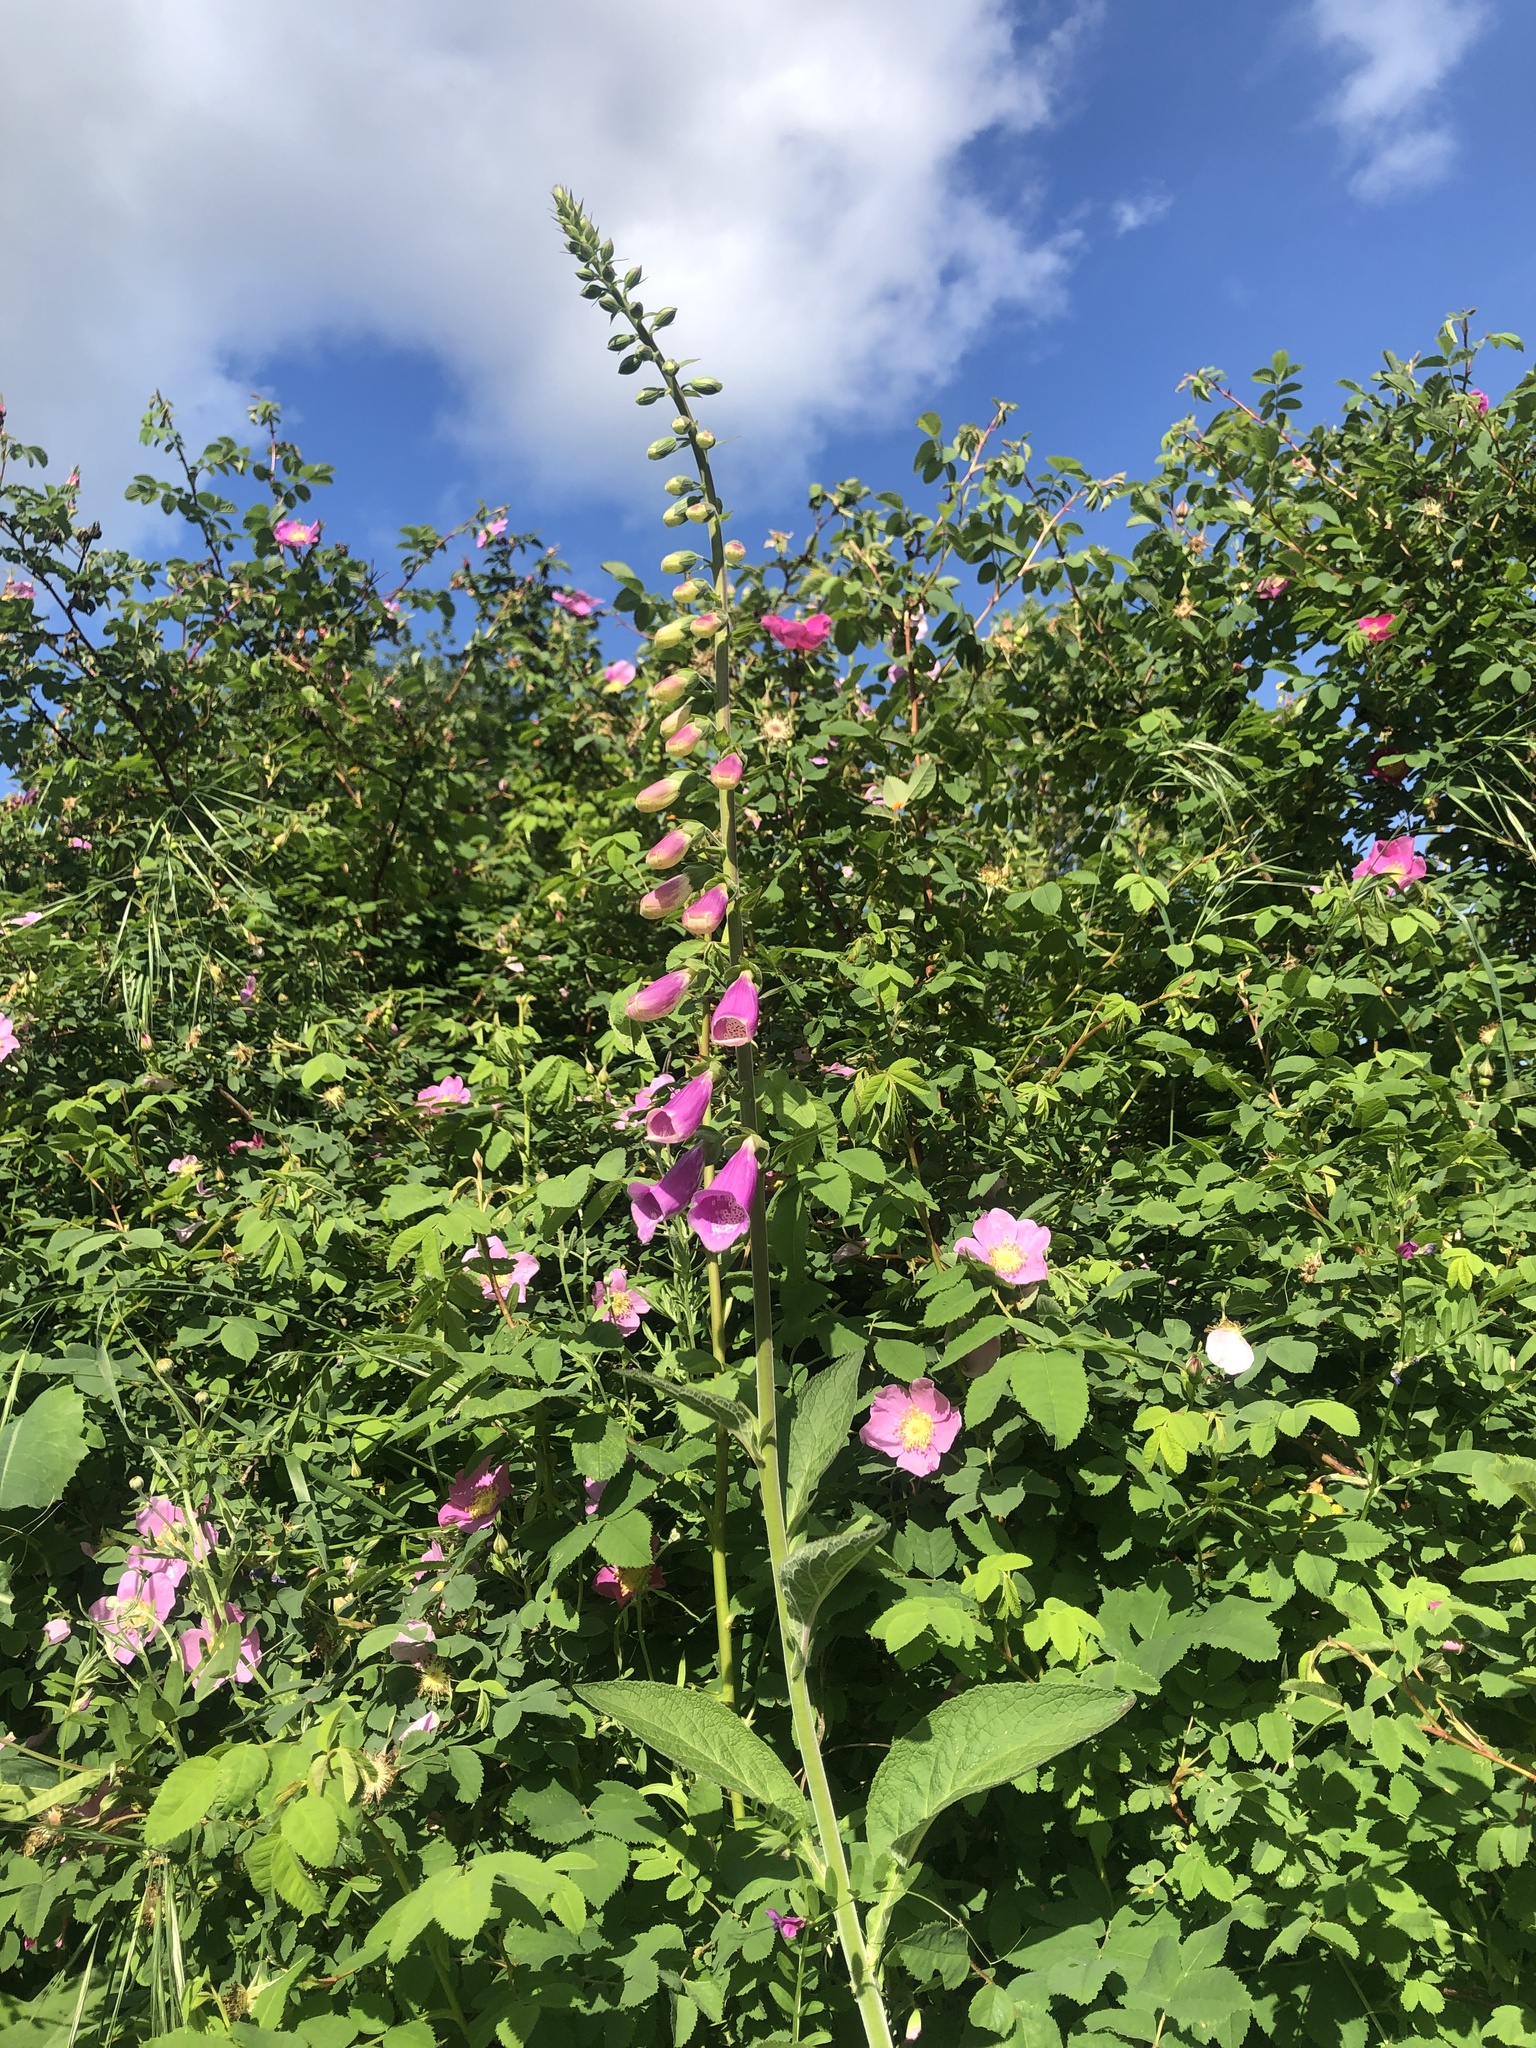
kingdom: Plantae
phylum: Tracheophyta
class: Magnoliopsida
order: Lamiales
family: Plantaginaceae
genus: Digitalis
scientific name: Digitalis purpurea
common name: Foxglove
